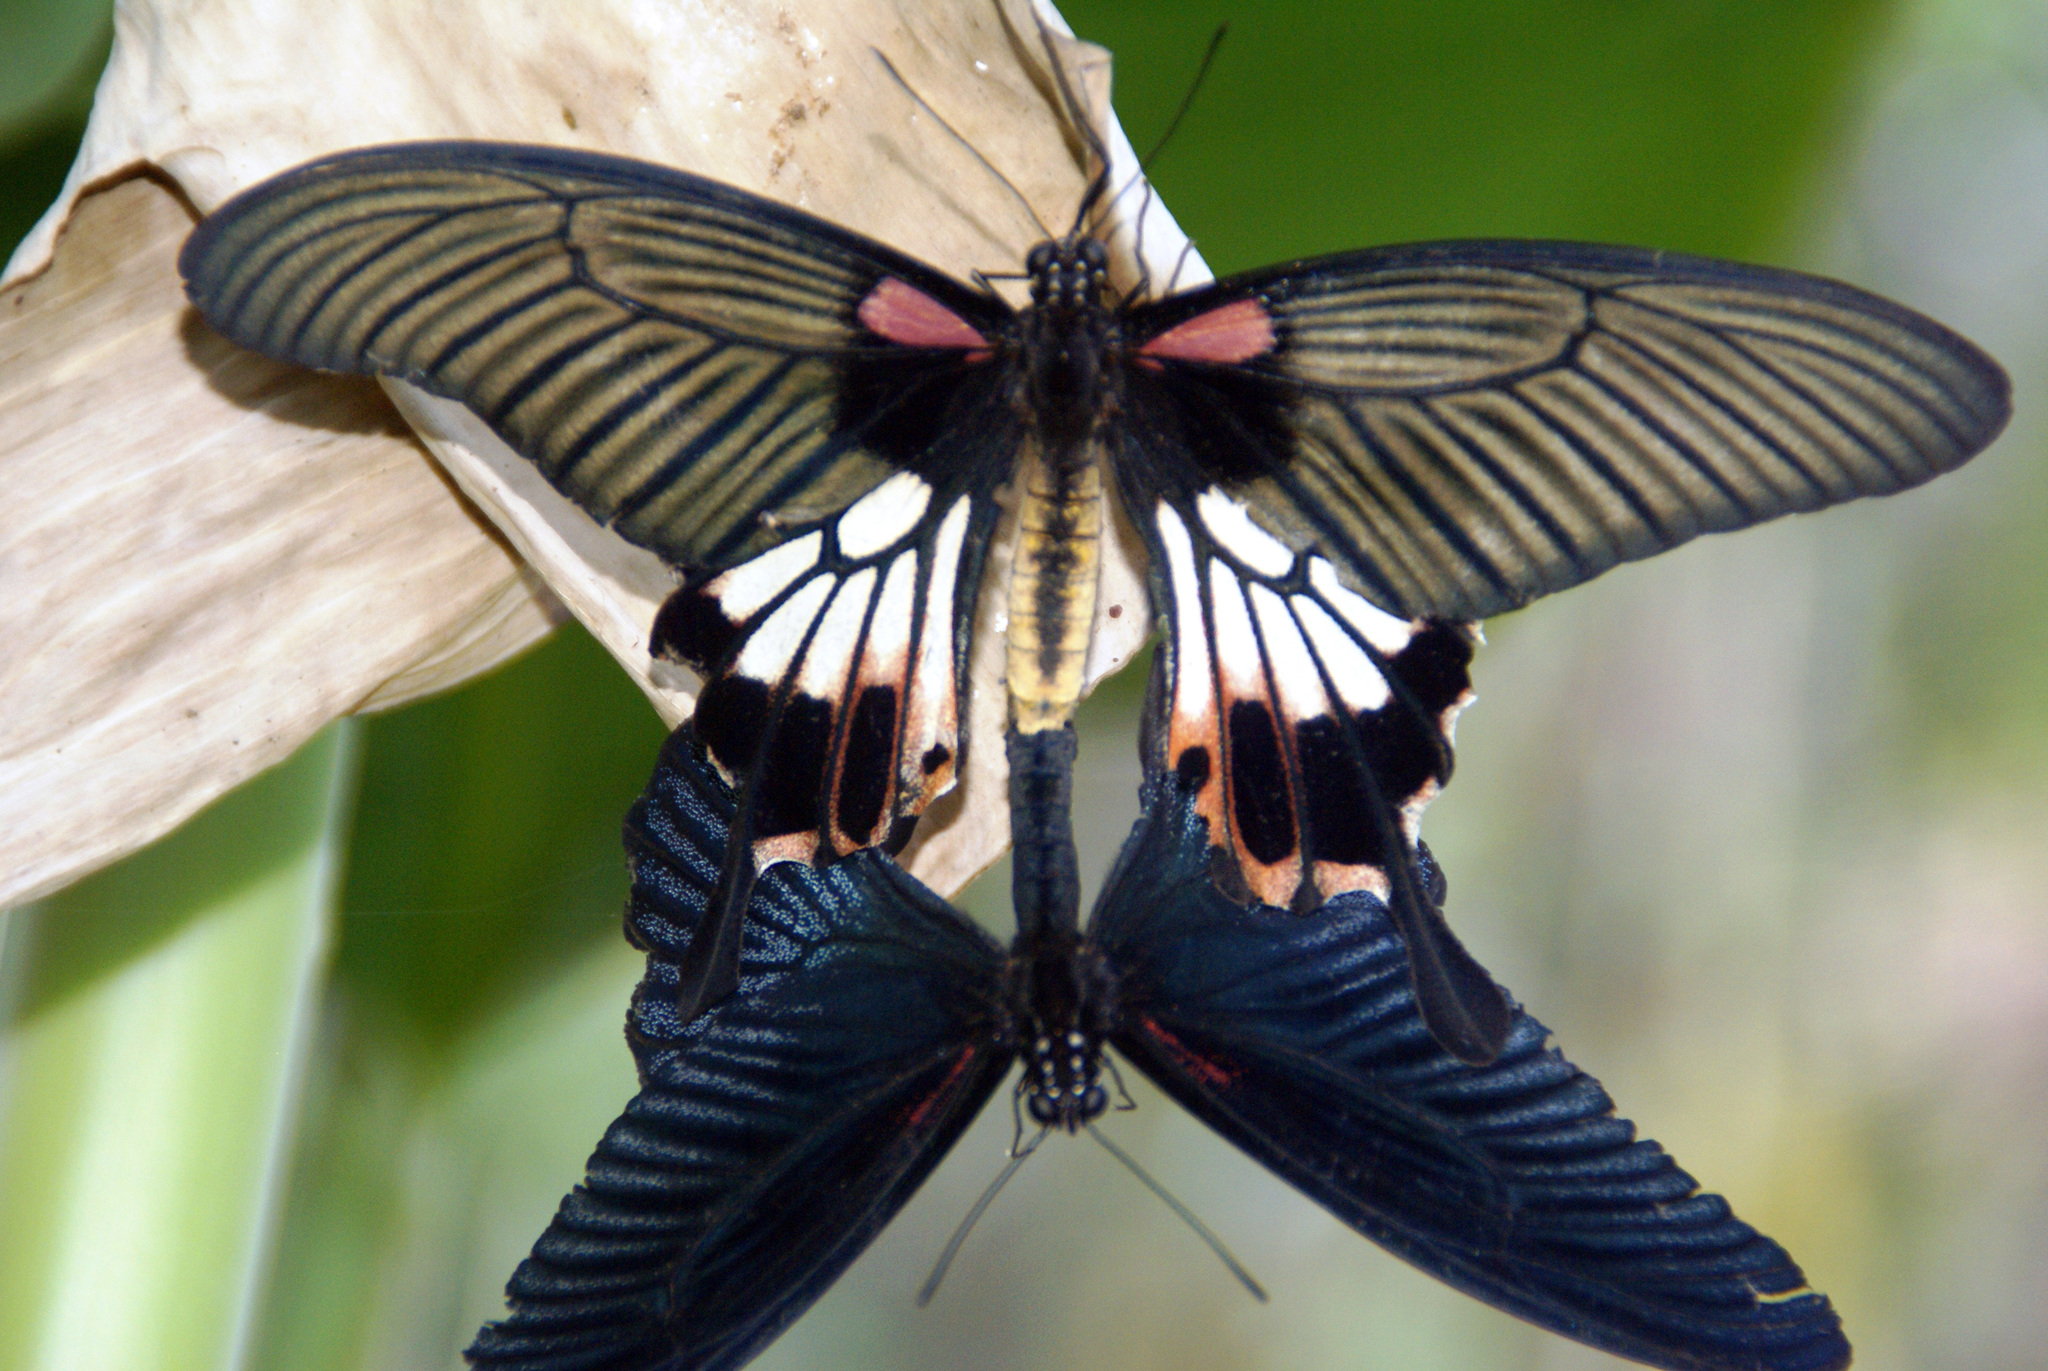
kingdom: Animalia
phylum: Arthropoda
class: Insecta
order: Lepidoptera
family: Papilionidae
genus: Papilio
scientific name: Papilio memnon
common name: Great mormon
